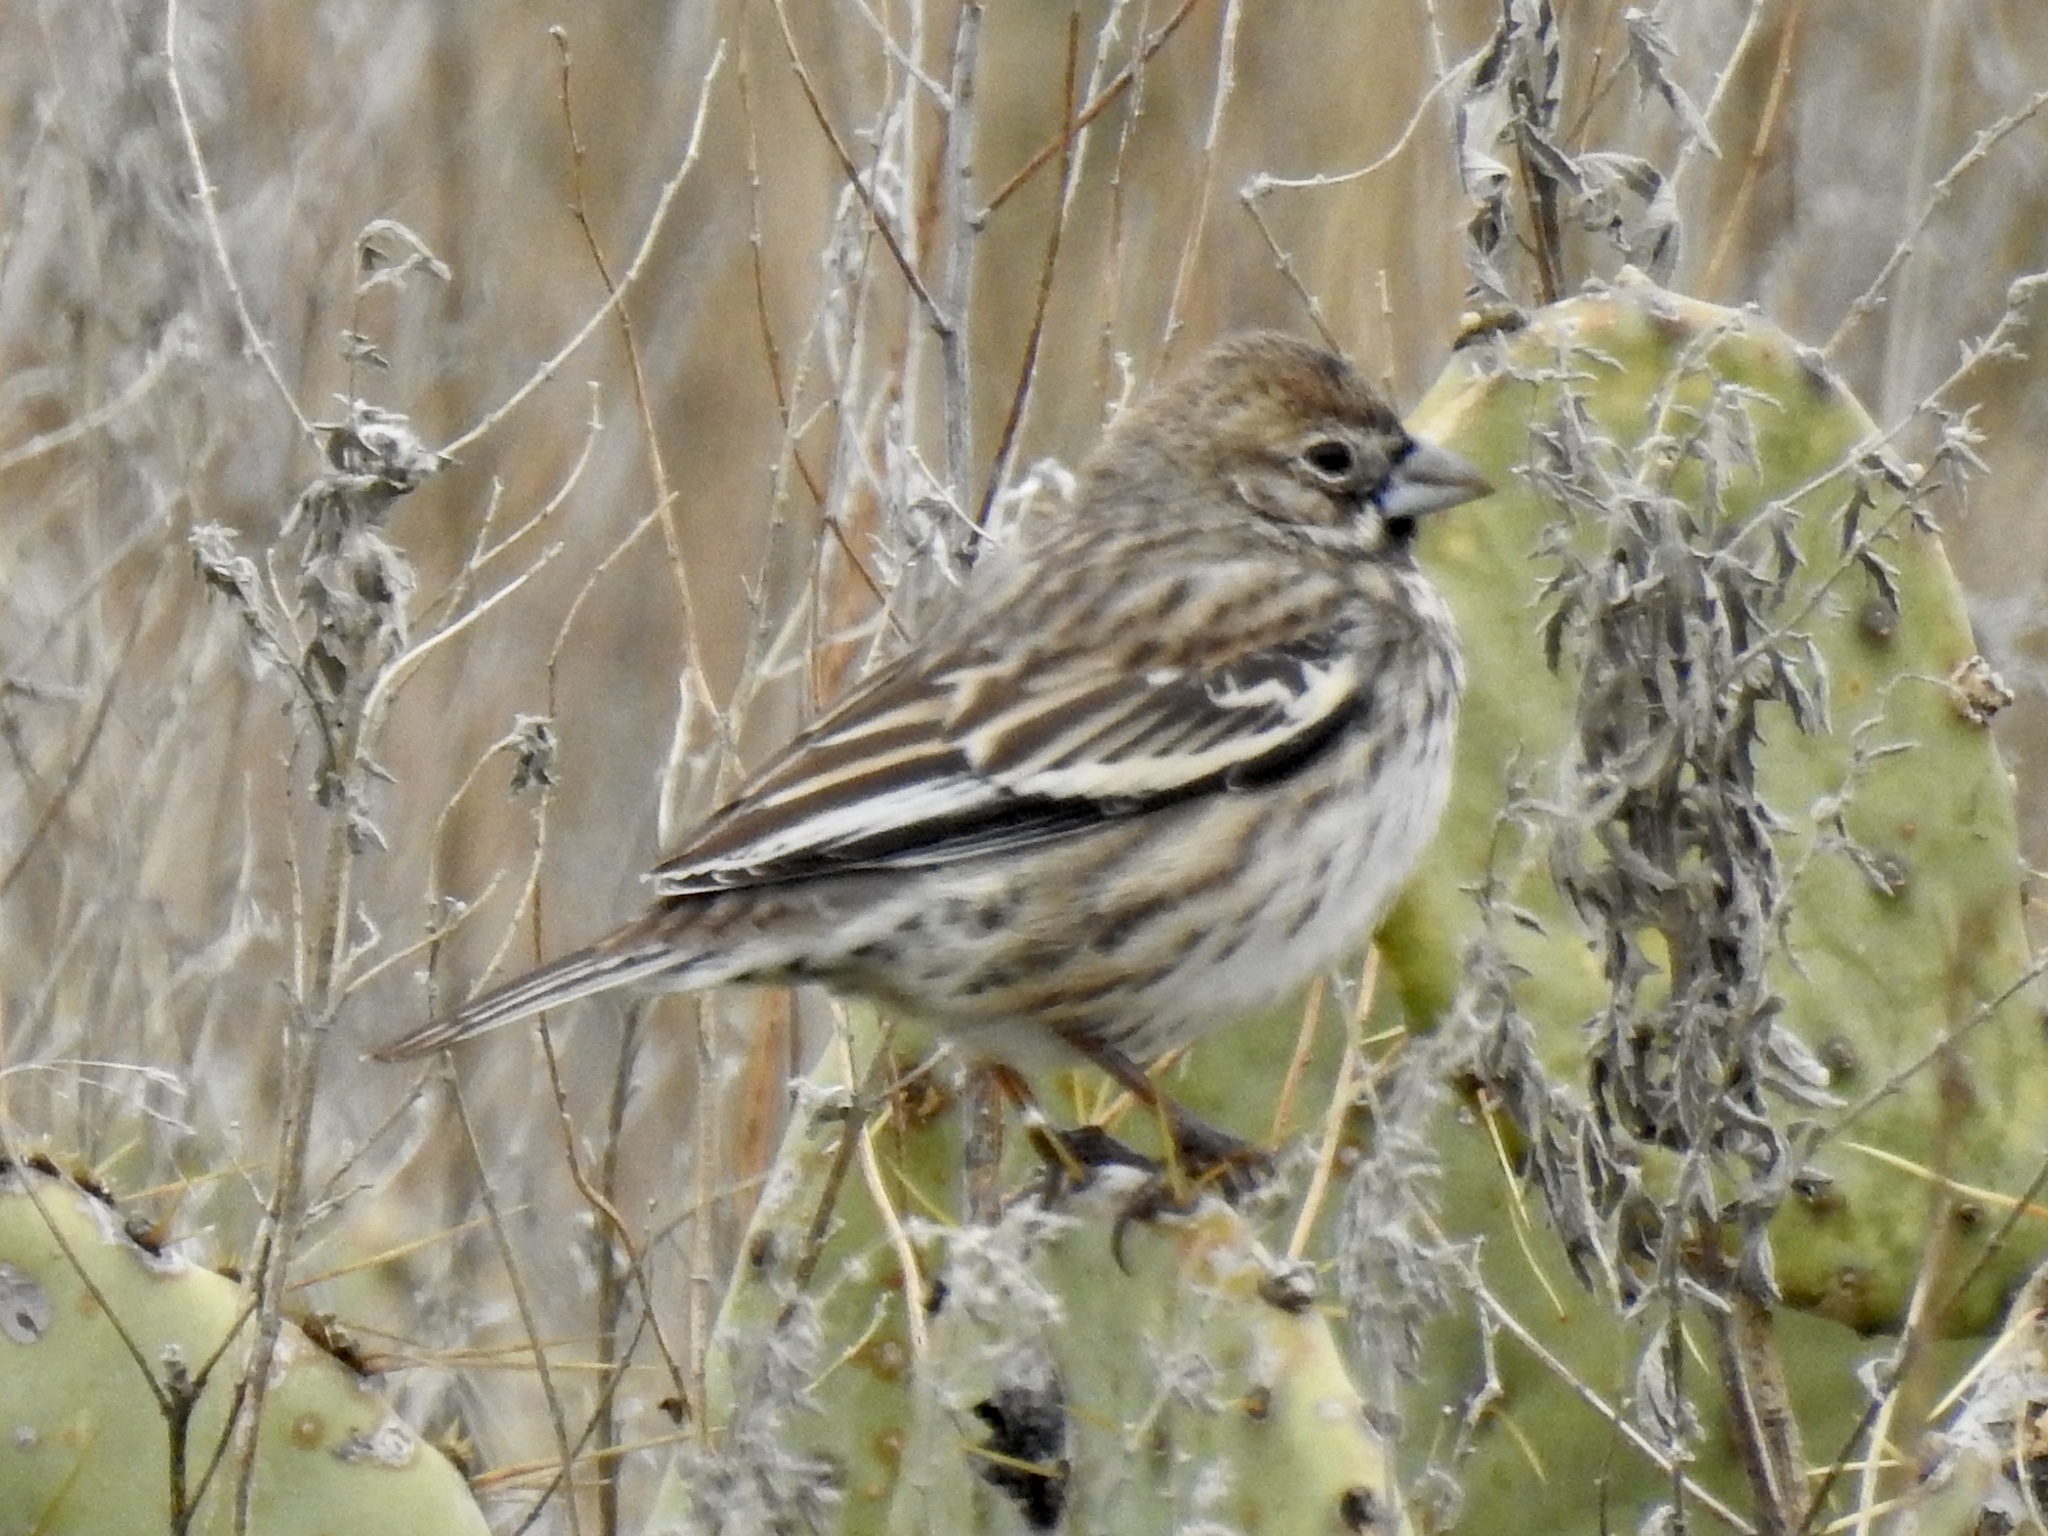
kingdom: Animalia
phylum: Chordata
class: Aves
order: Passeriformes
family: Passerellidae
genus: Calamospiza
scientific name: Calamospiza melanocorys
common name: Lark bunting
